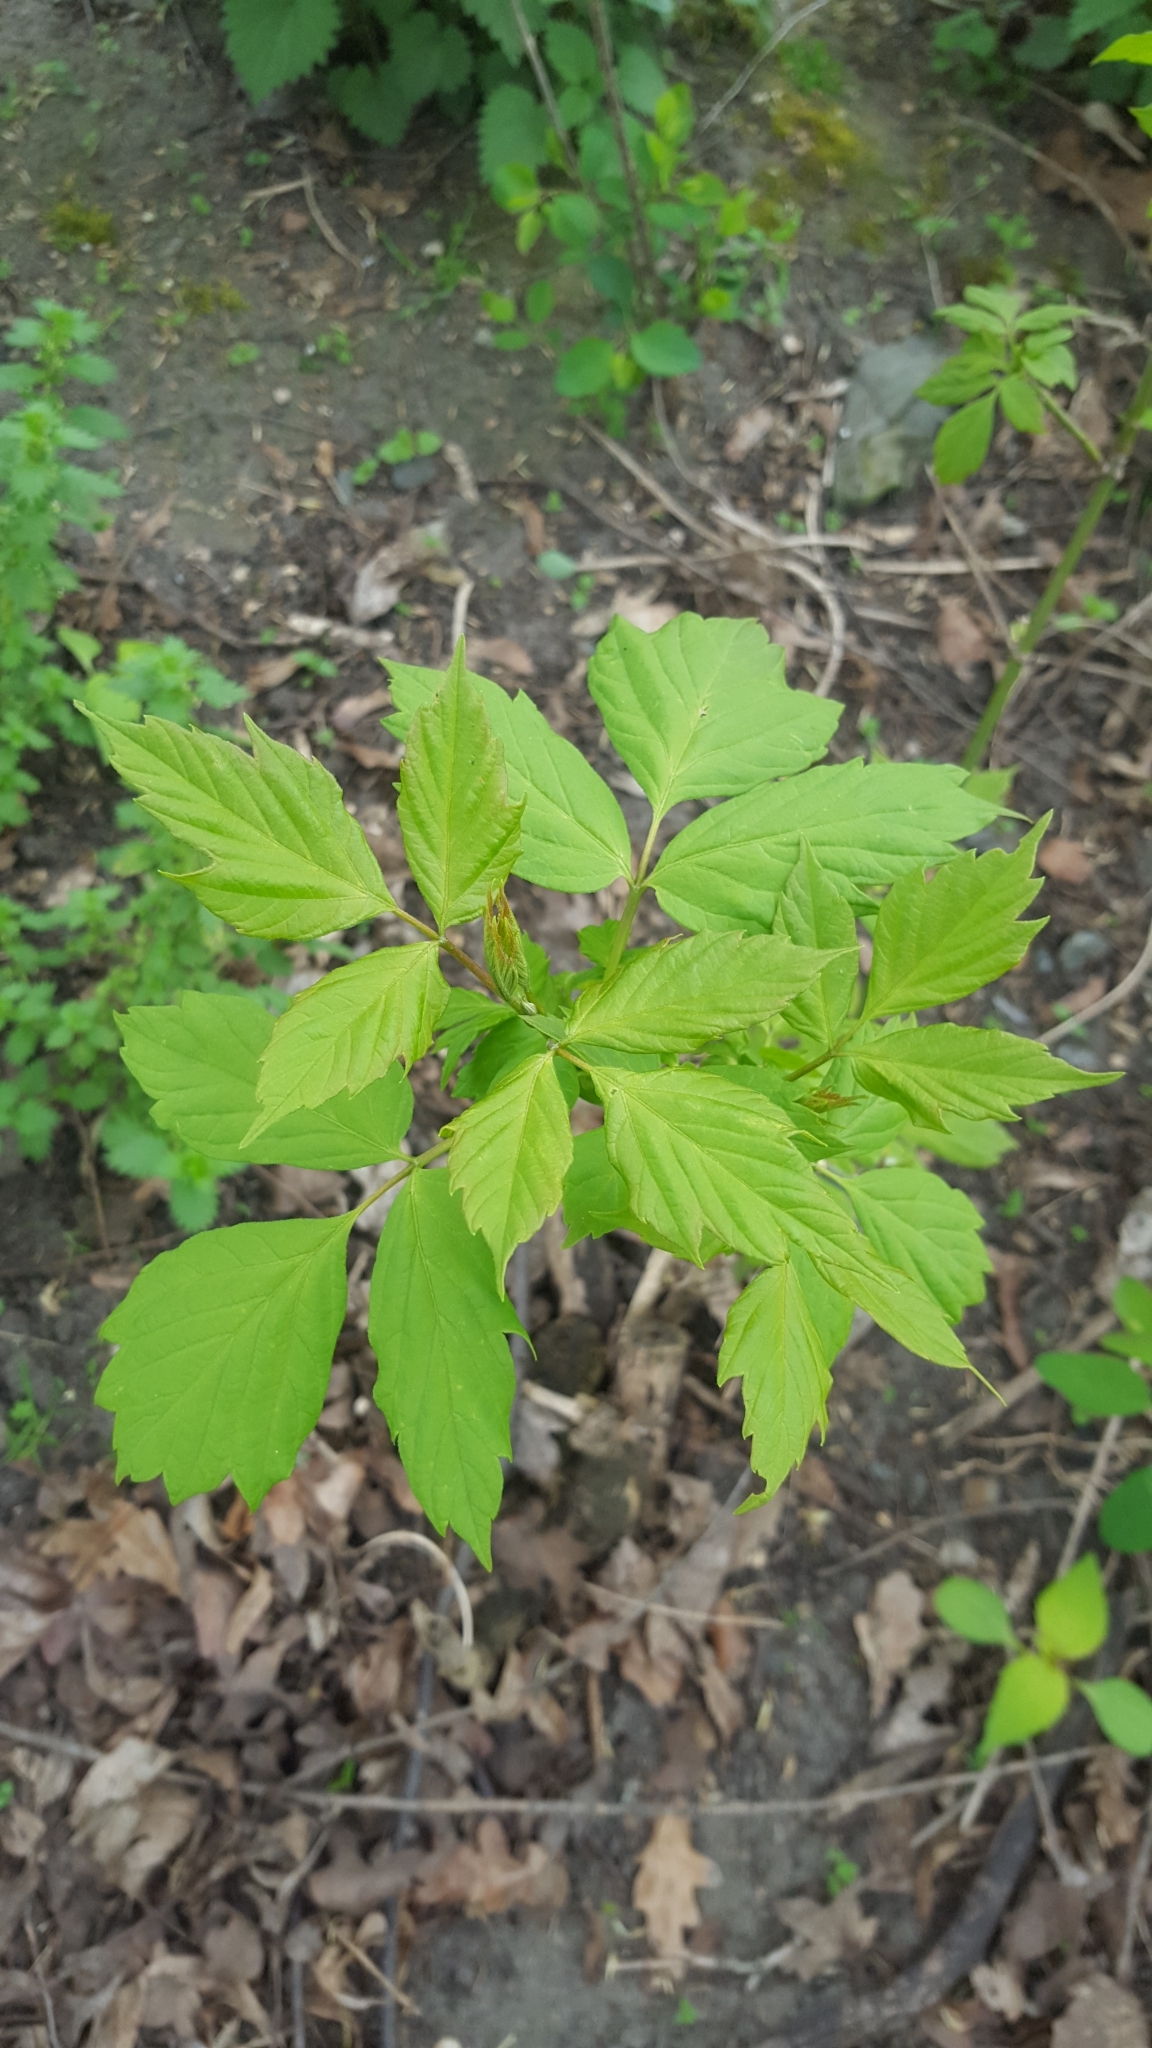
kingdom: Plantae
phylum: Tracheophyta
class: Magnoliopsida
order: Sapindales
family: Sapindaceae
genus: Acer
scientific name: Acer negundo
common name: Ashleaf maple
